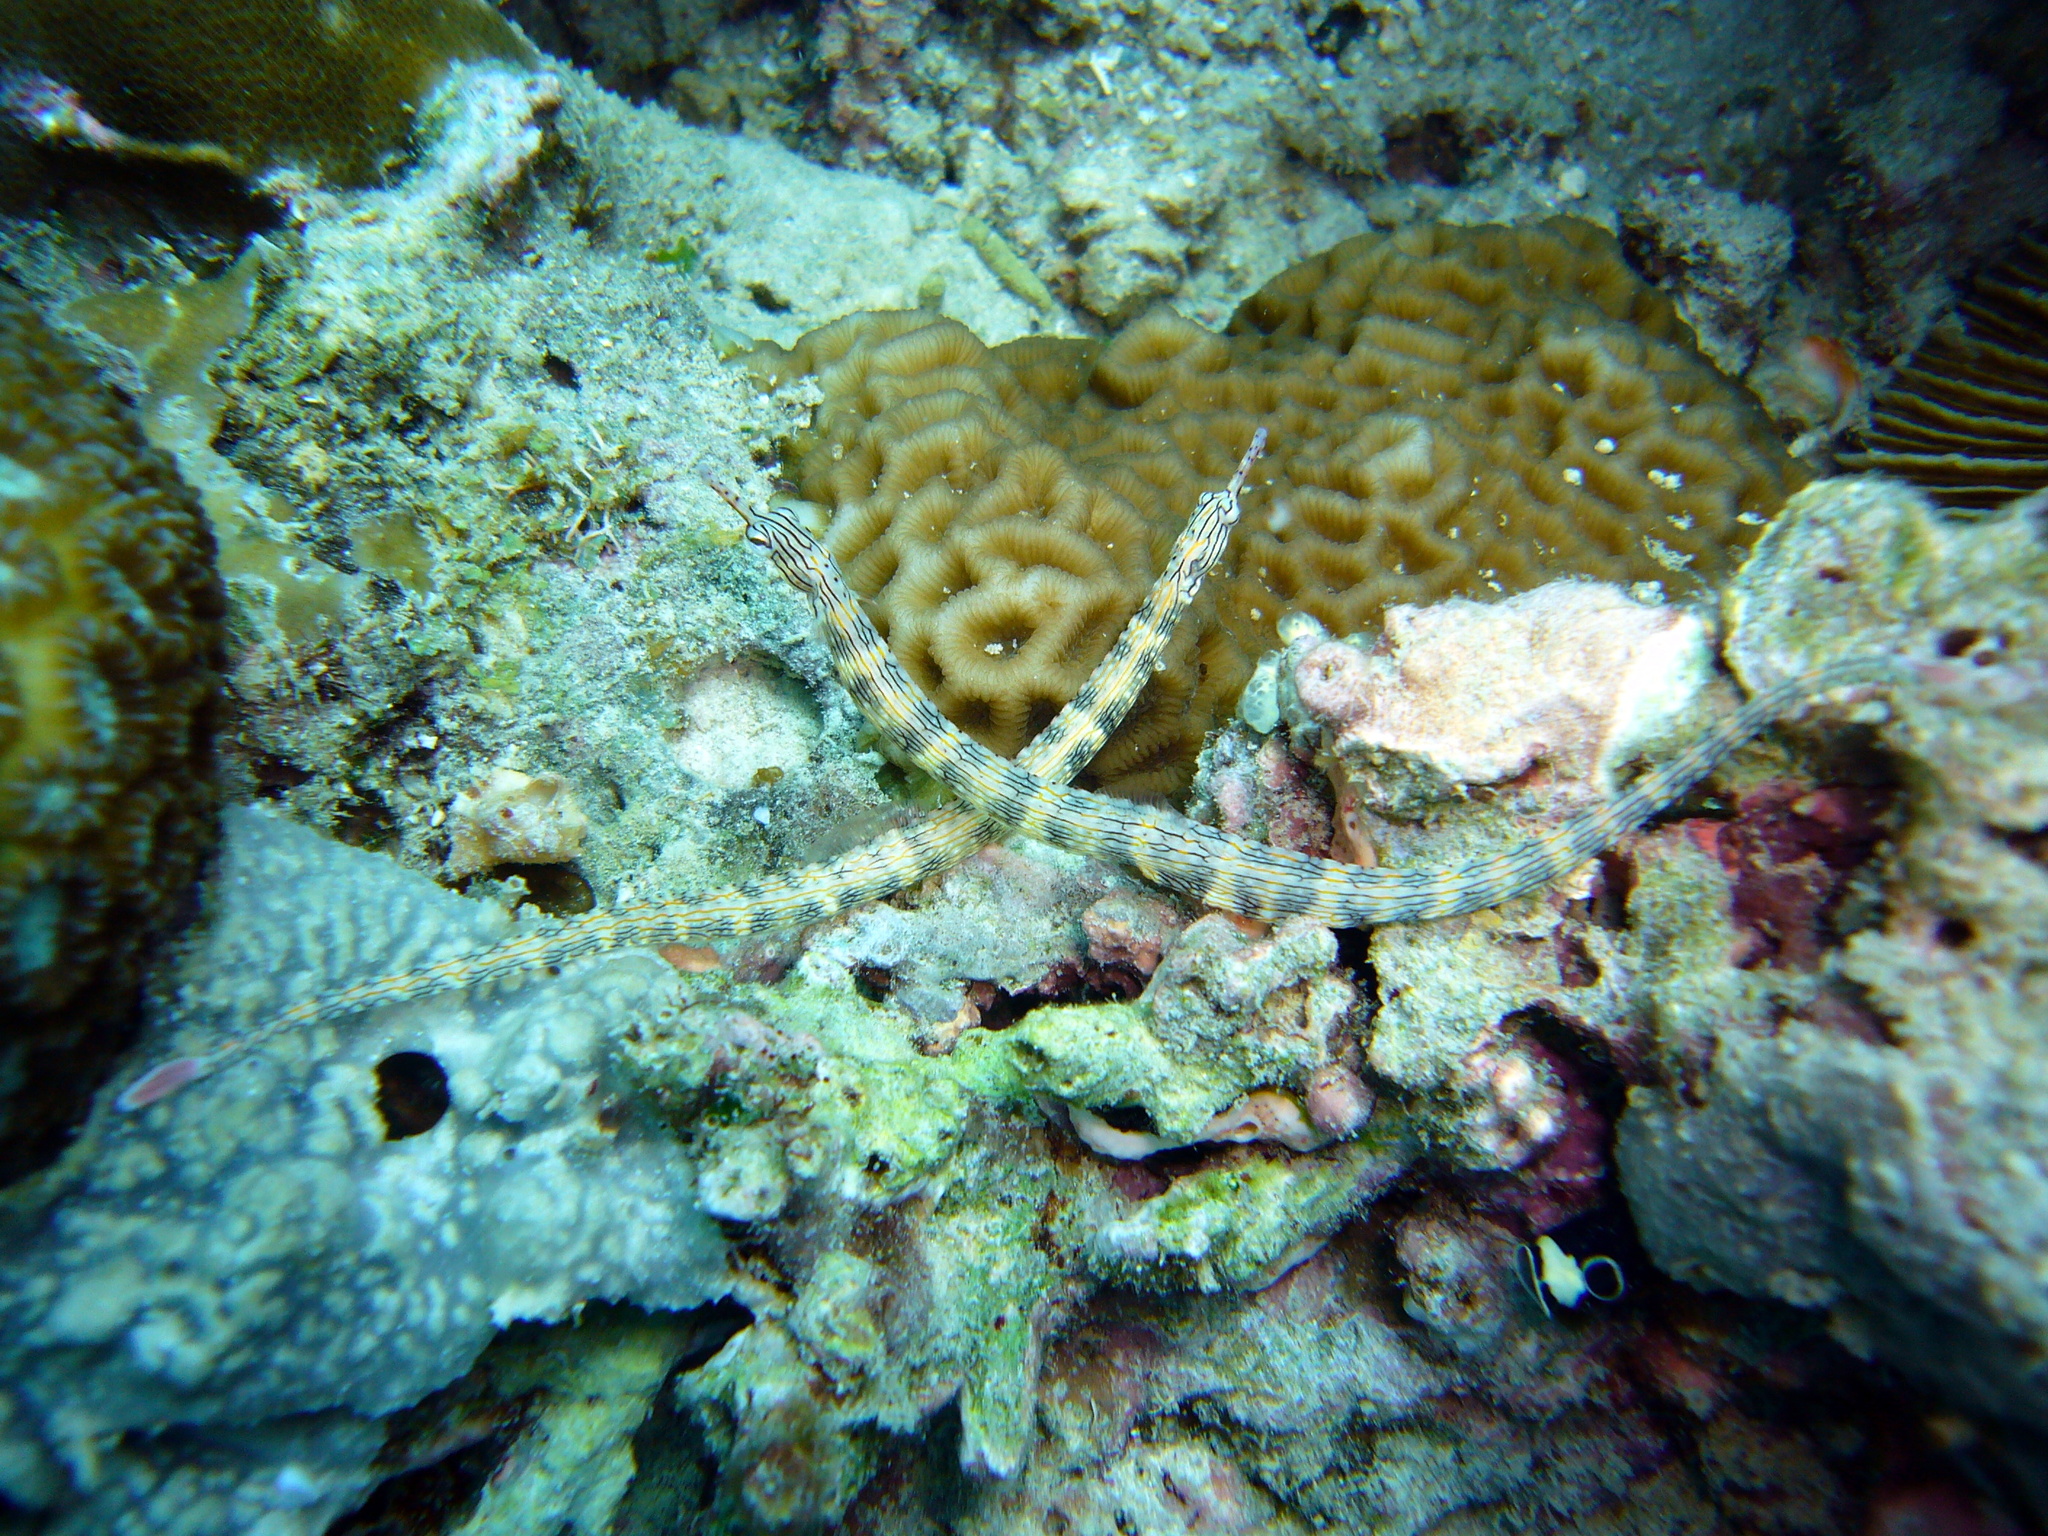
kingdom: Animalia
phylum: Chordata
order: Syngnathiformes
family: Syngnathidae
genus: Corythoichthys
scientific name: Corythoichthys intestinalis
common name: Australian banded pipefish
